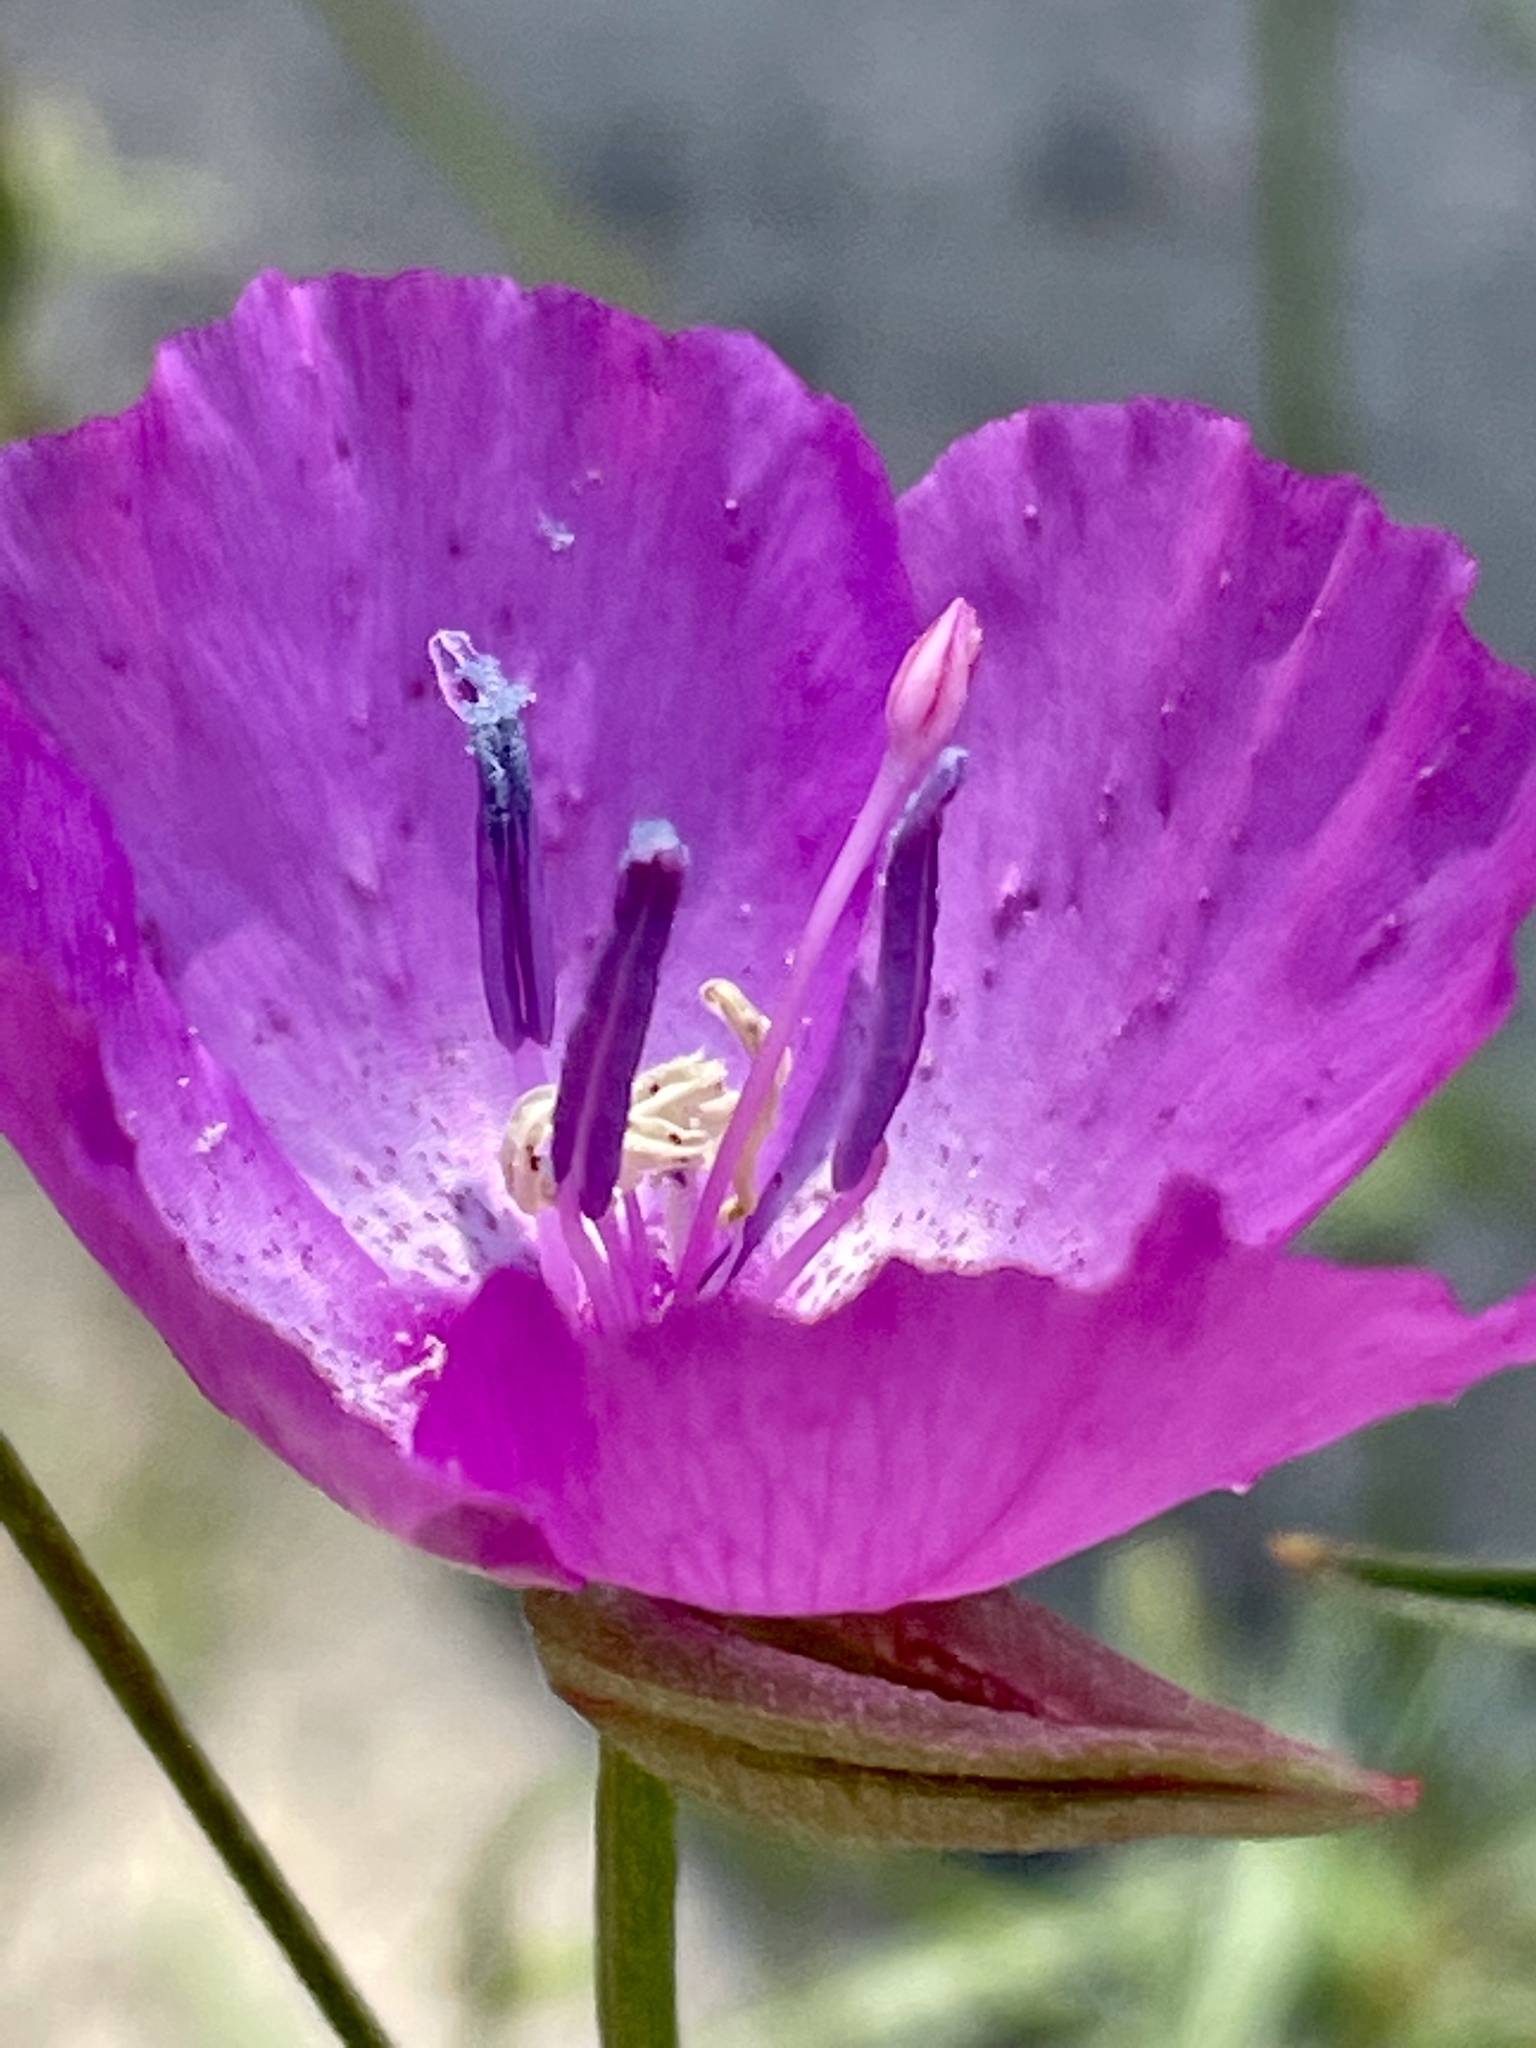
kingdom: Plantae
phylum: Tracheophyta
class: Magnoliopsida
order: Myrtales
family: Onagraceae
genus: Clarkia
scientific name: Clarkia lewisii
